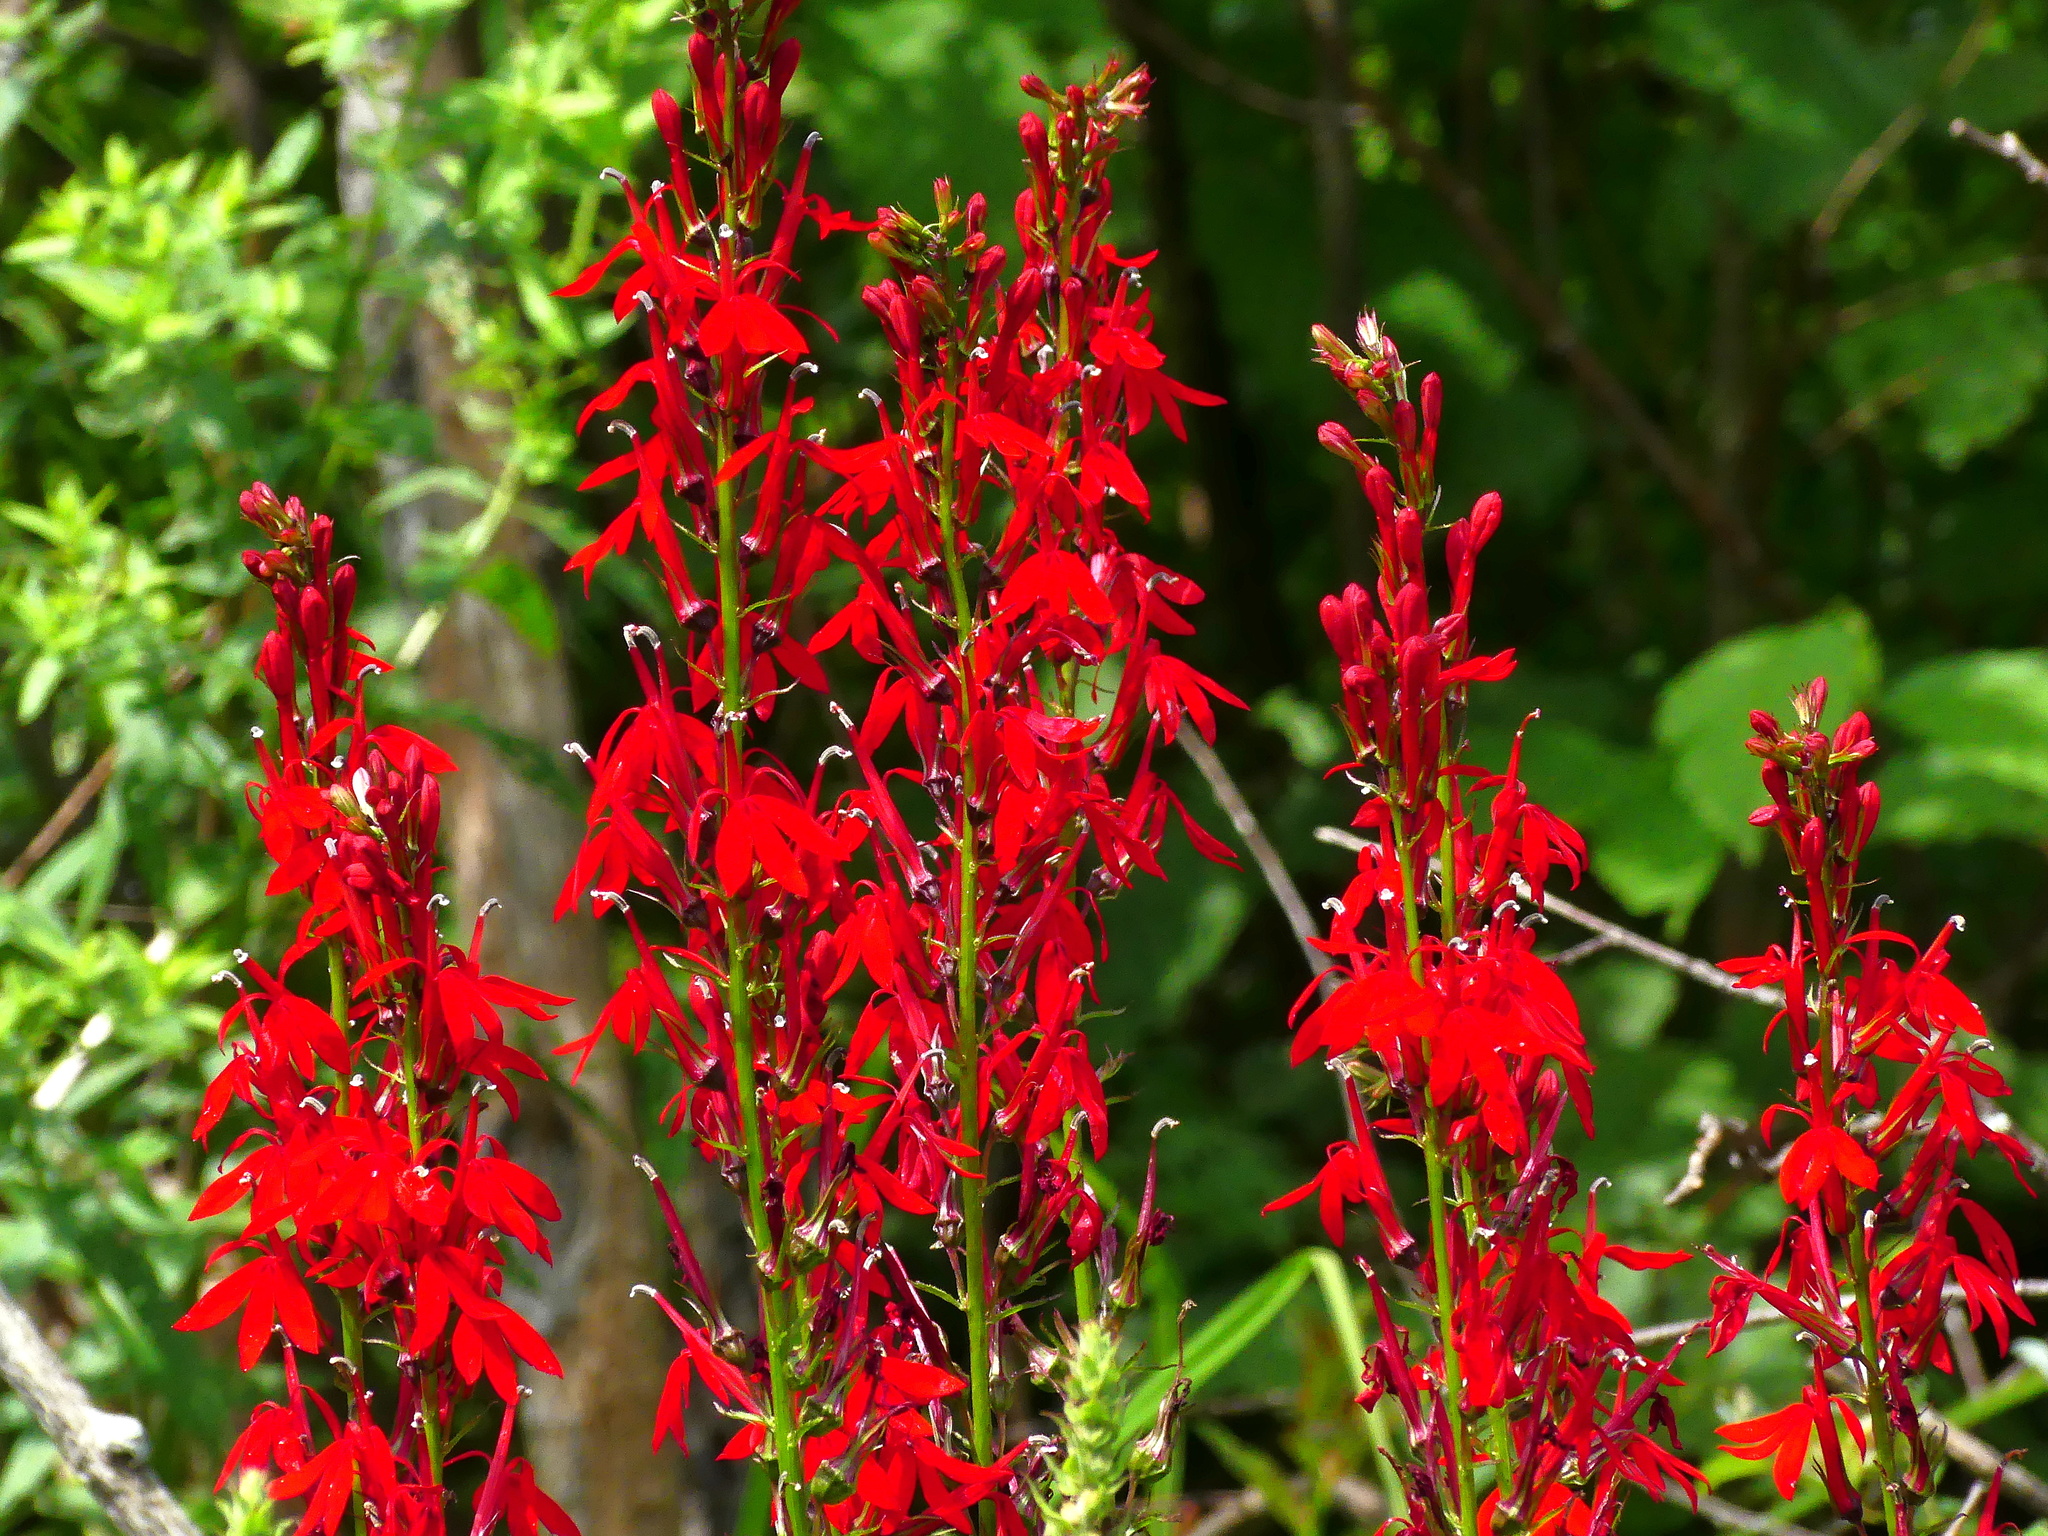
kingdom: Plantae
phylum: Tracheophyta
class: Magnoliopsida
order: Asterales
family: Campanulaceae
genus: Lobelia
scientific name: Lobelia cardinalis
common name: Cardinal flower
